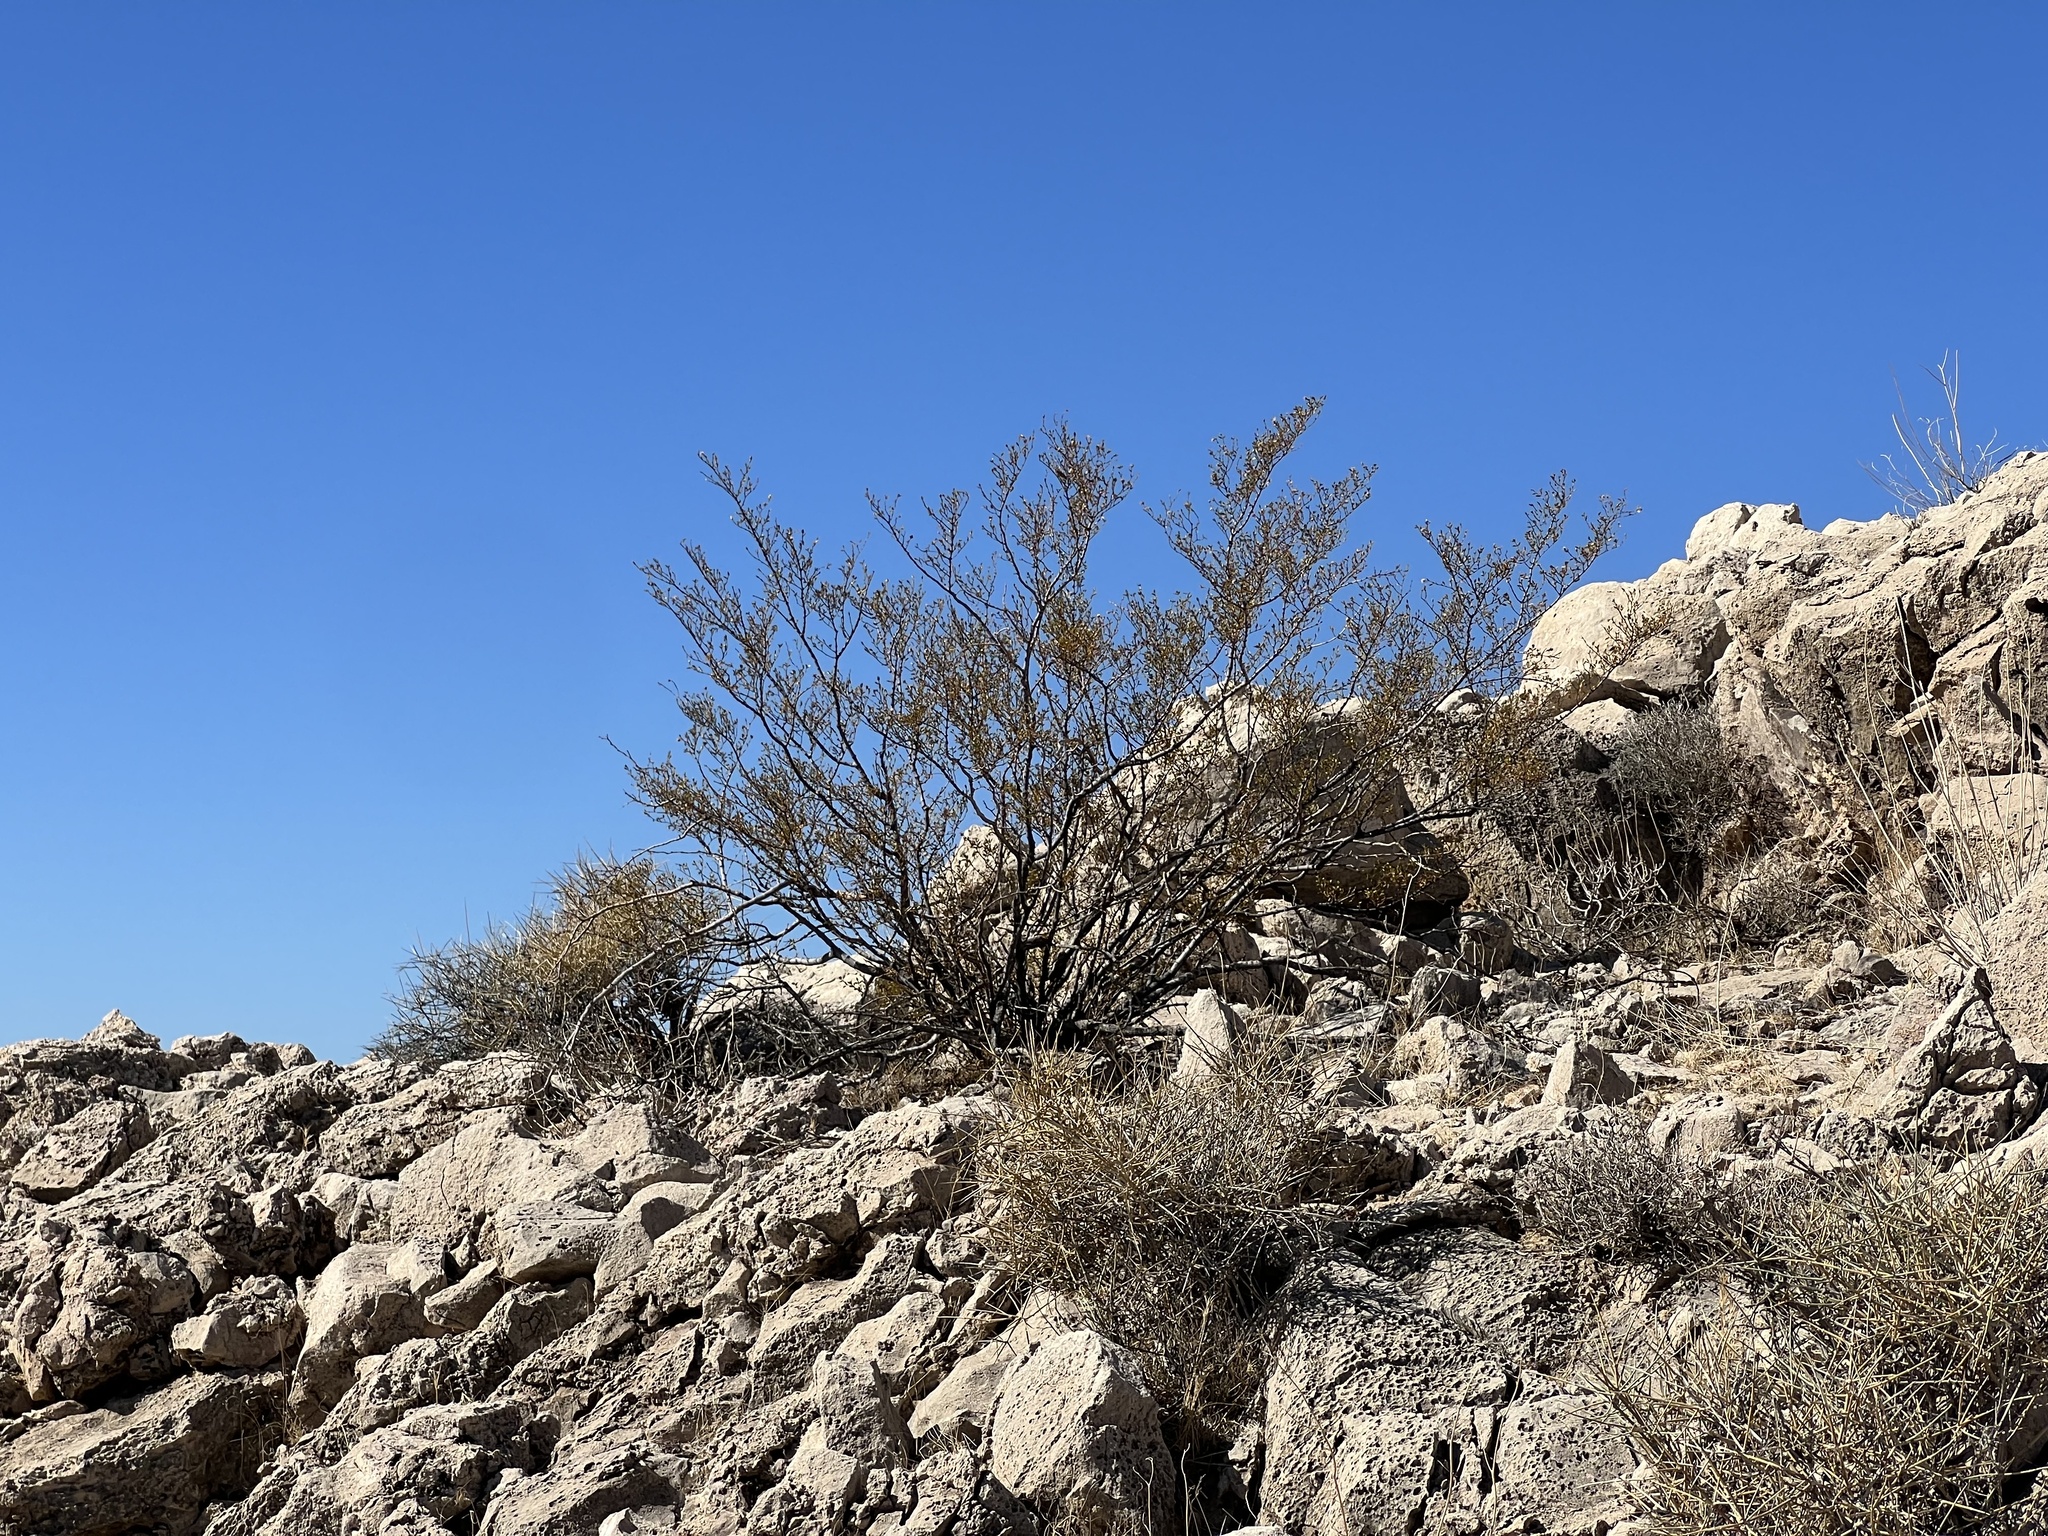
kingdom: Plantae
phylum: Tracheophyta
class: Magnoliopsida
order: Zygophyllales
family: Zygophyllaceae
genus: Larrea
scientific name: Larrea tridentata
